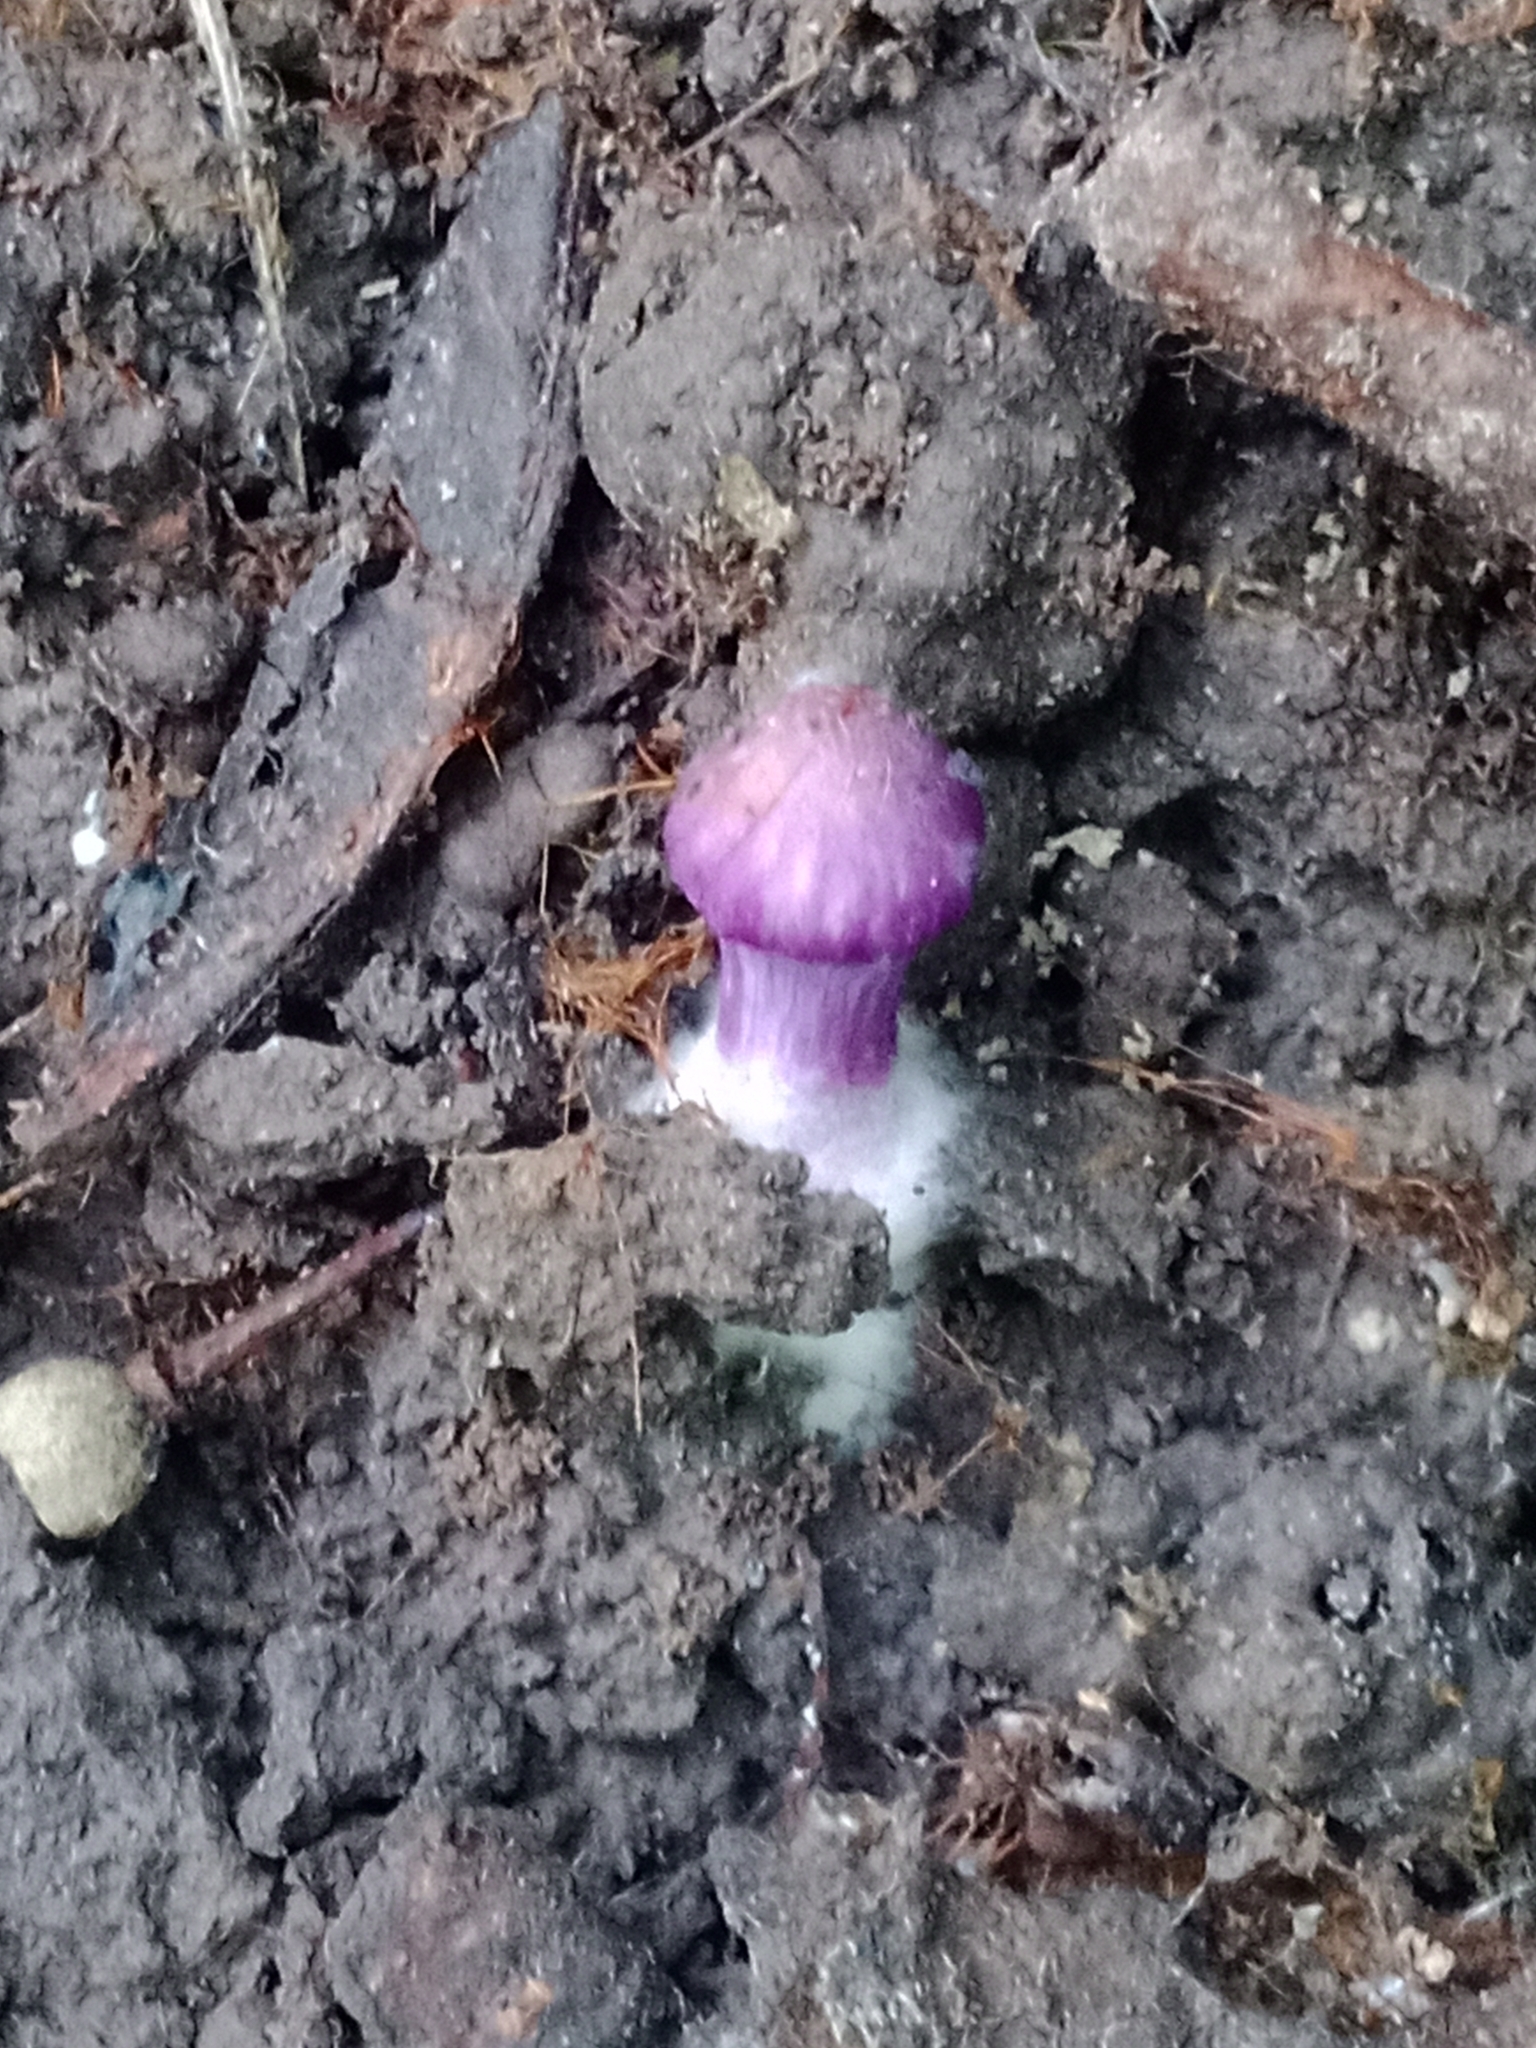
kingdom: Fungi
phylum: Basidiomycota
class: Agaricomycetes
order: Agaricales
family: Inocybaceae
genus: Inocybe
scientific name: Inocybe geophylla
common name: White fibrecap
